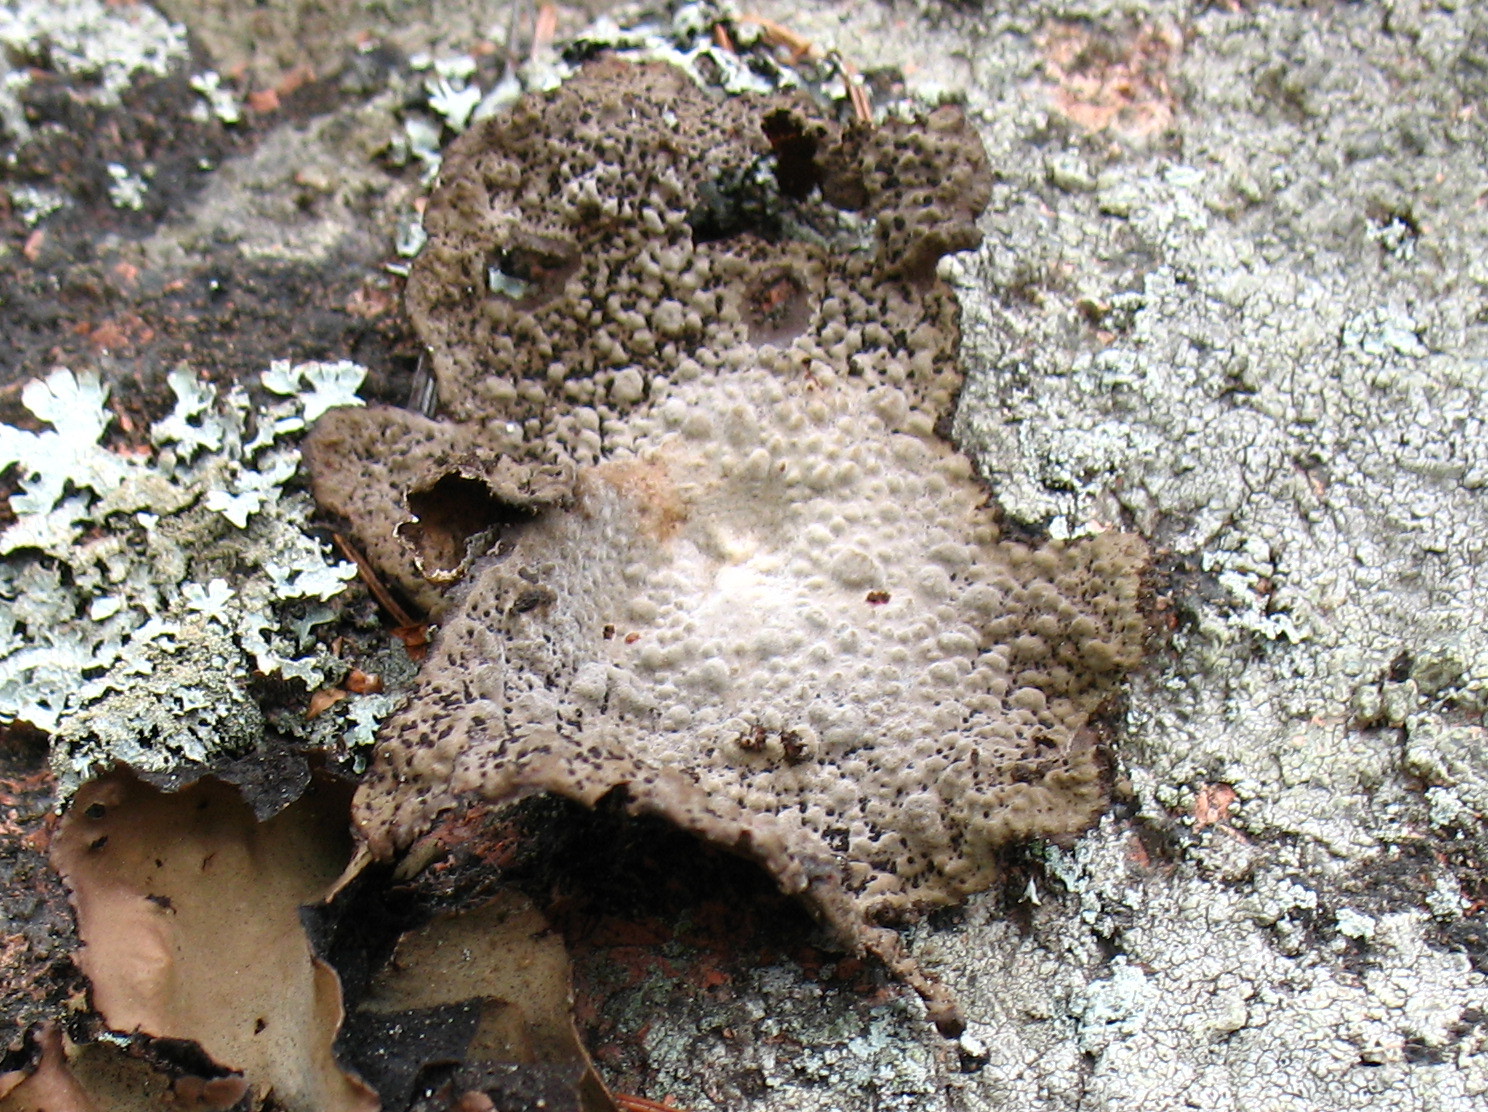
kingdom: Fungi
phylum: Ascomycota
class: Lecanoromycetes
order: Umbilicariales
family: Umbilicariaceae
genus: Lasallia
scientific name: Lasallia papulosa
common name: Common toadskin lichen
